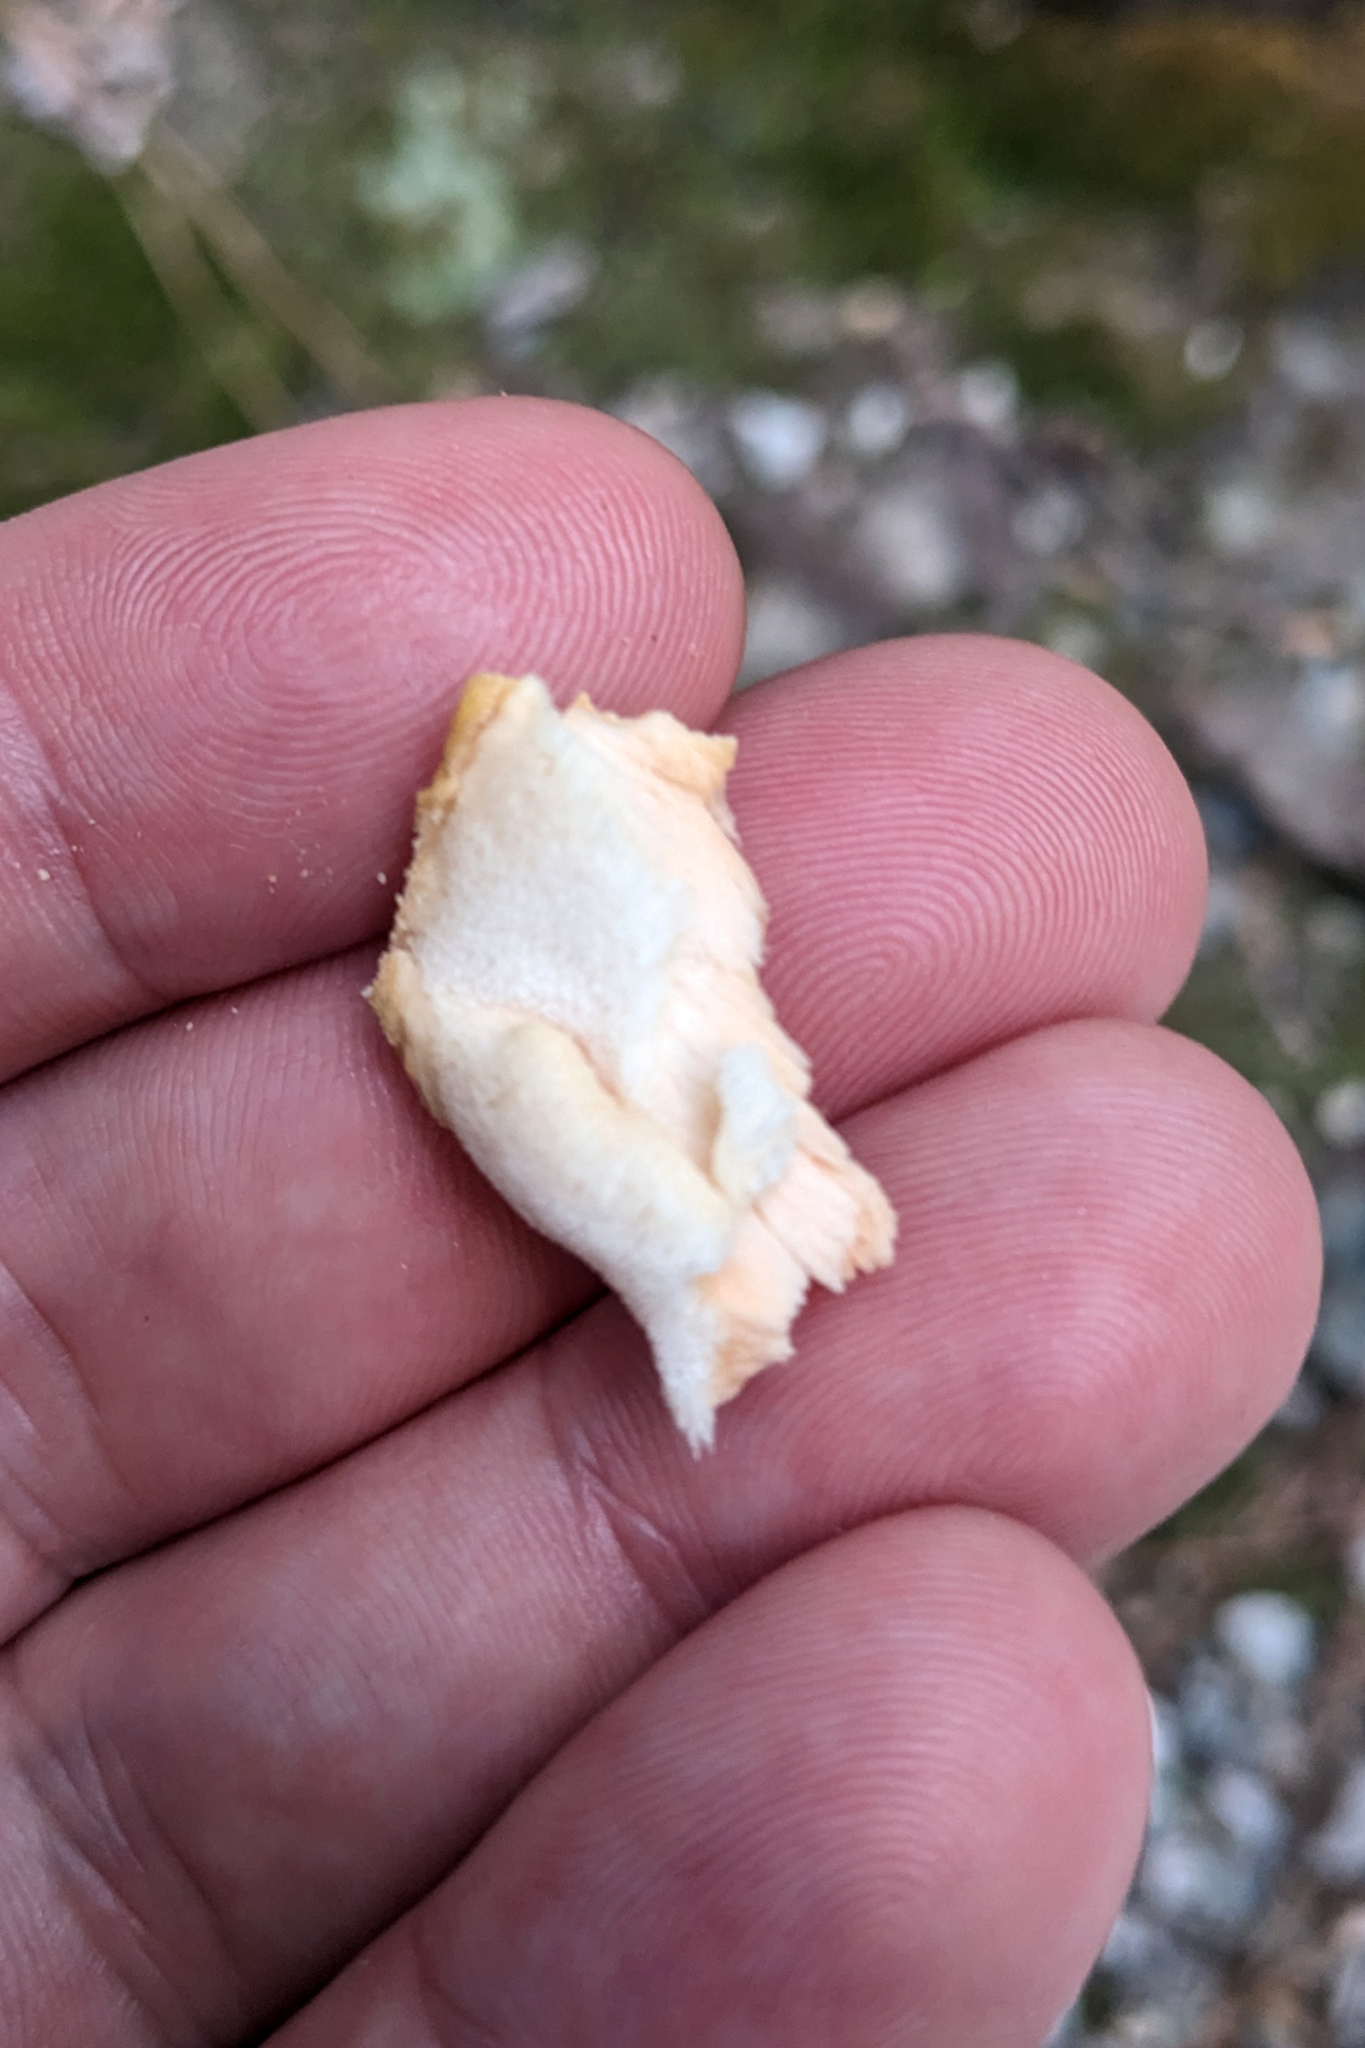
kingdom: Fungi
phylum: Basidiomycota
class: Agaricomycetes
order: Polyporales
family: Laetiporaceae
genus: Laetiporus
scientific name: Laetiporus sulphureus
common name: Chicken of the woods
